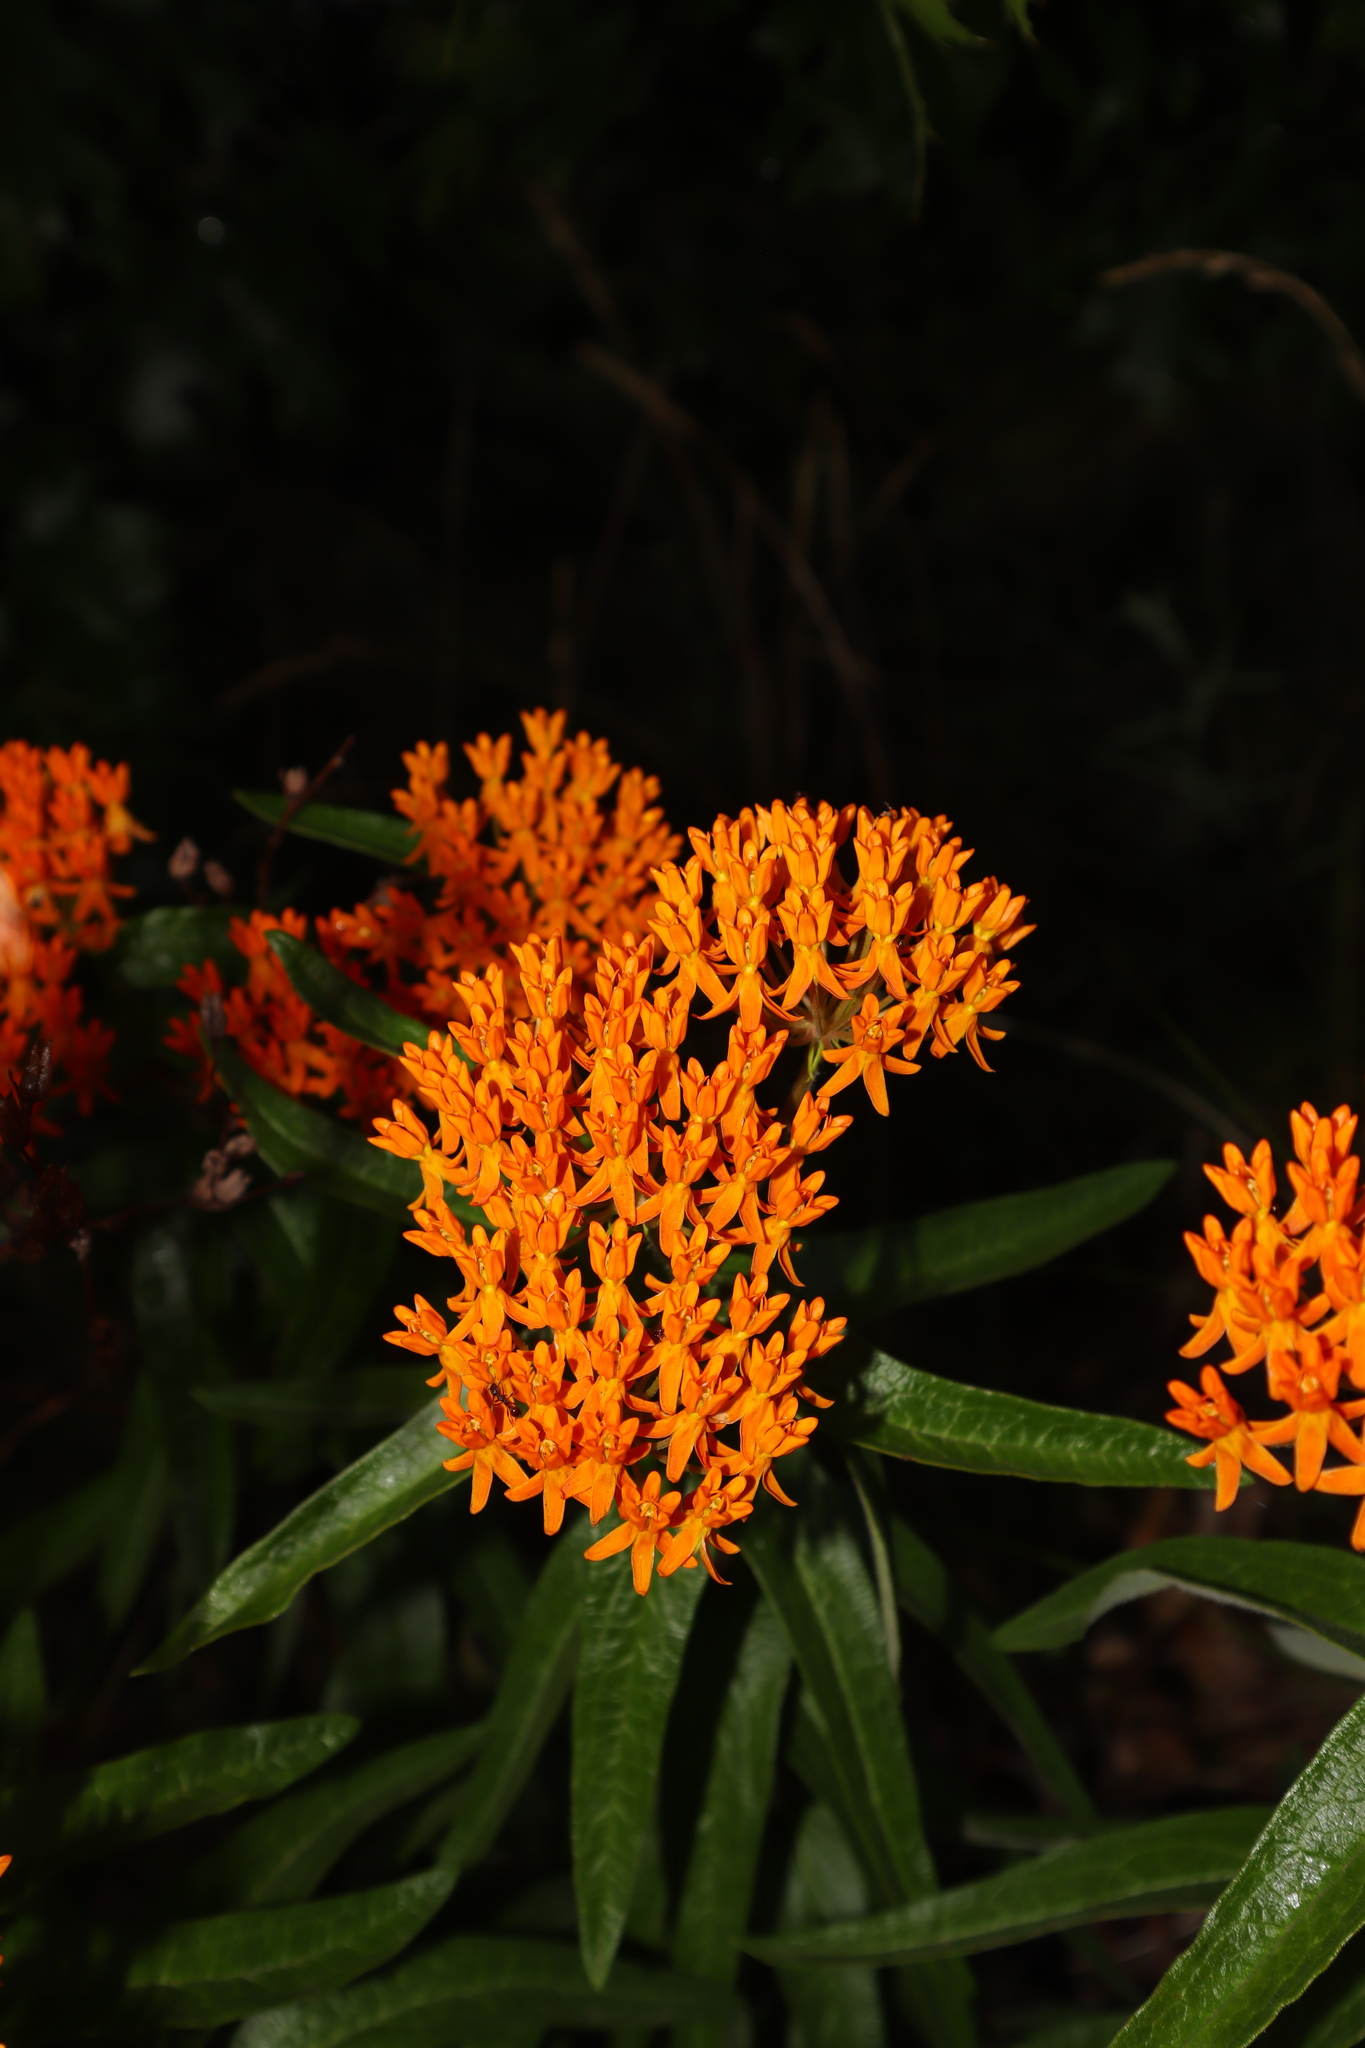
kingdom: Plantae
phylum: Tracheophyta
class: Magnoliopsida
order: Gentianales
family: Apocynaceae
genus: Asclepias
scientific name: Asclepias tuberosa
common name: Butterfly milkweed
